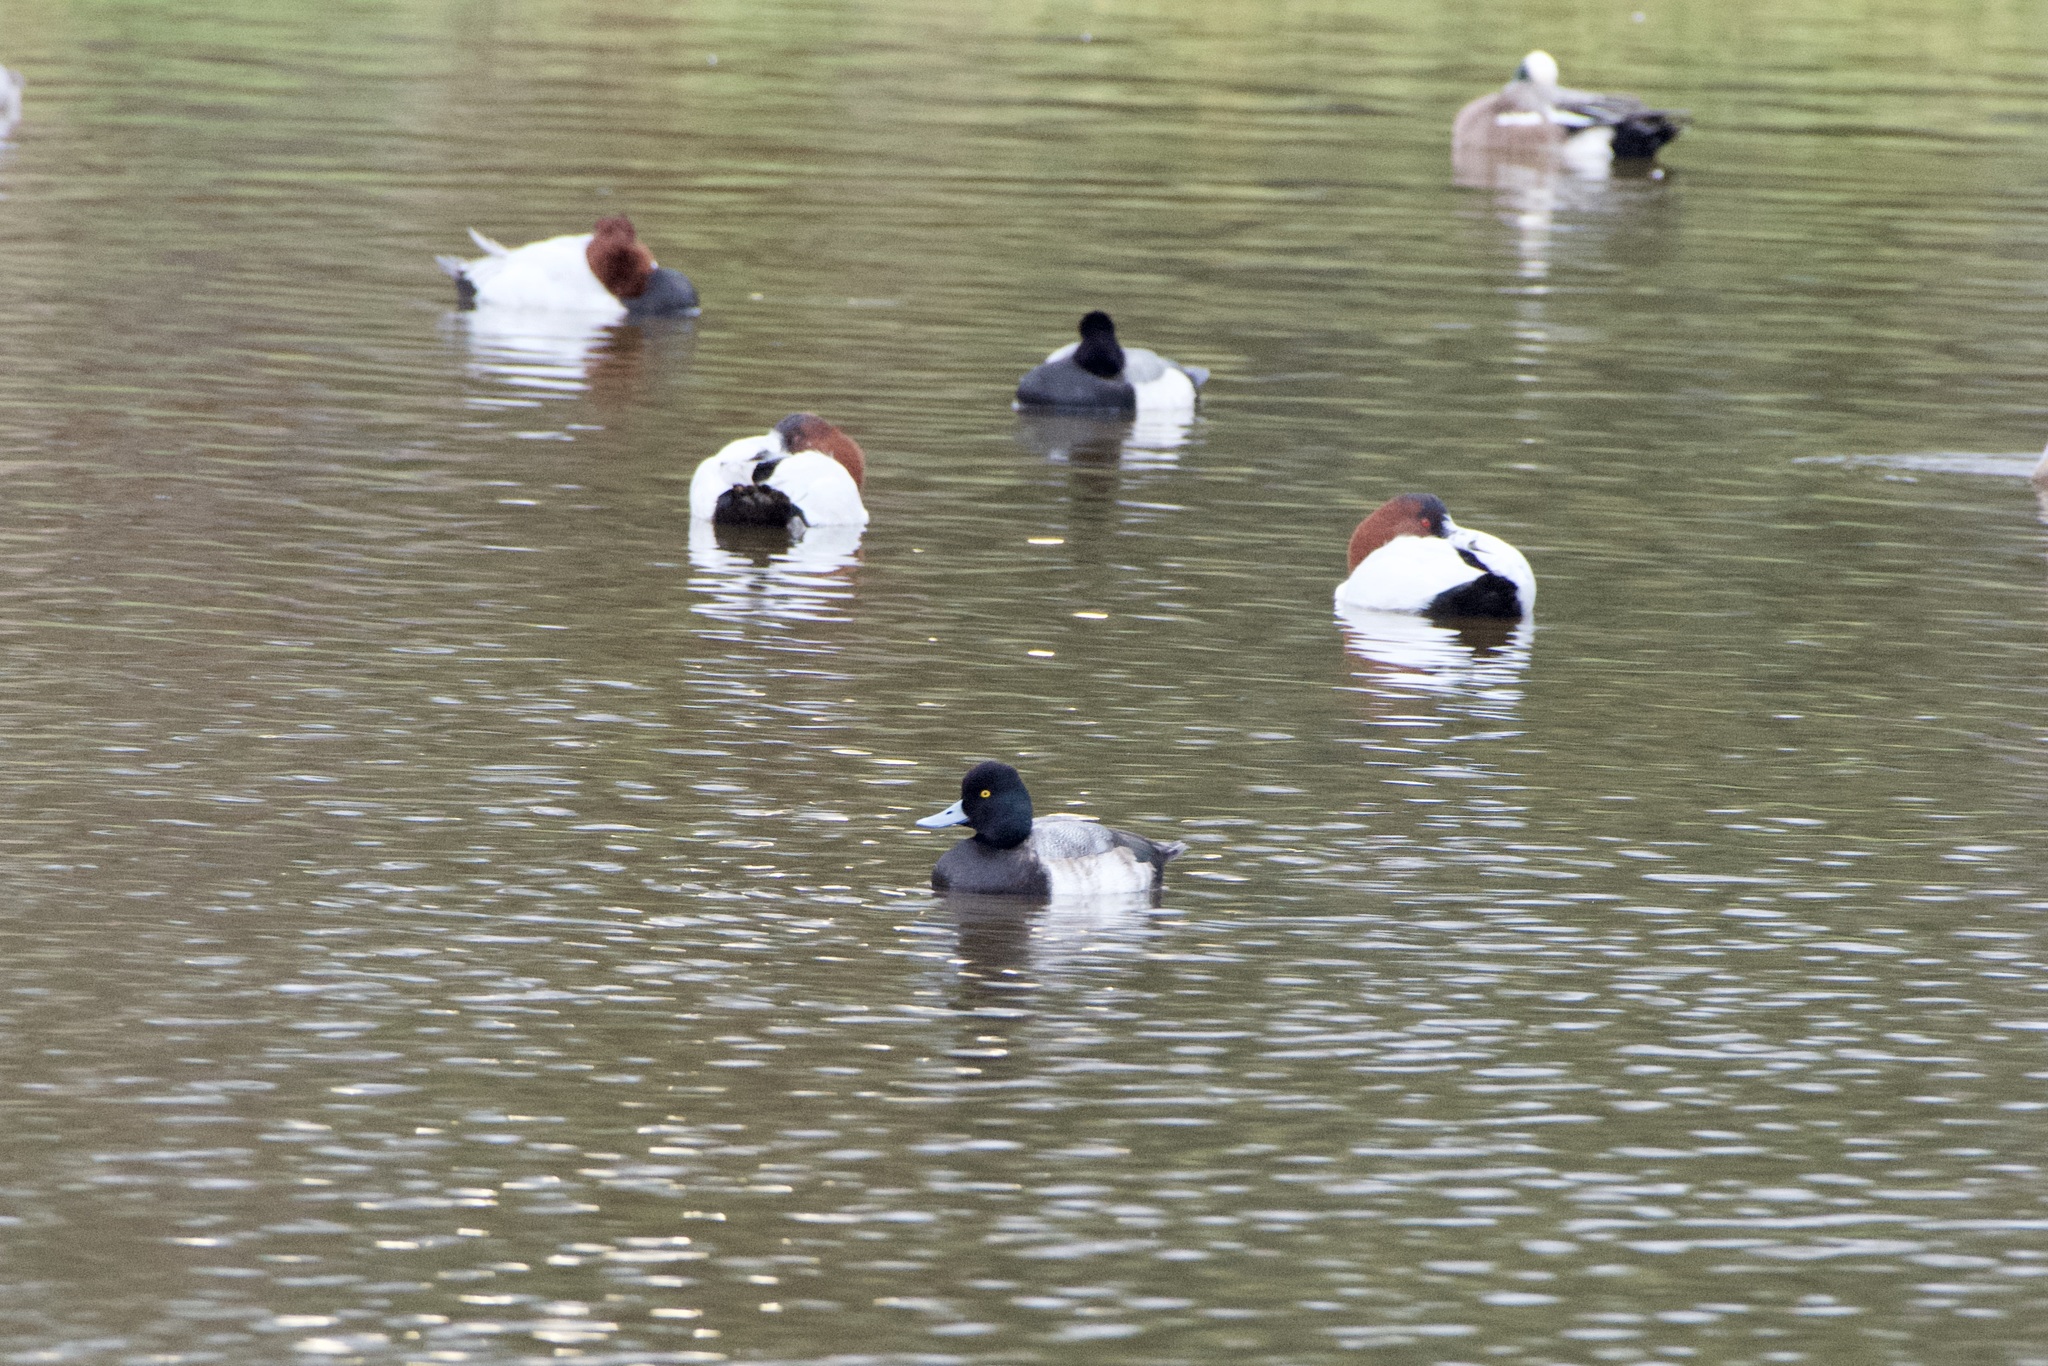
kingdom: Animalia
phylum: Chordata
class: Aves
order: Anseriformes
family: Anatidae
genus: Aythya
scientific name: Aythya affinis
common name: Lesser scaup
